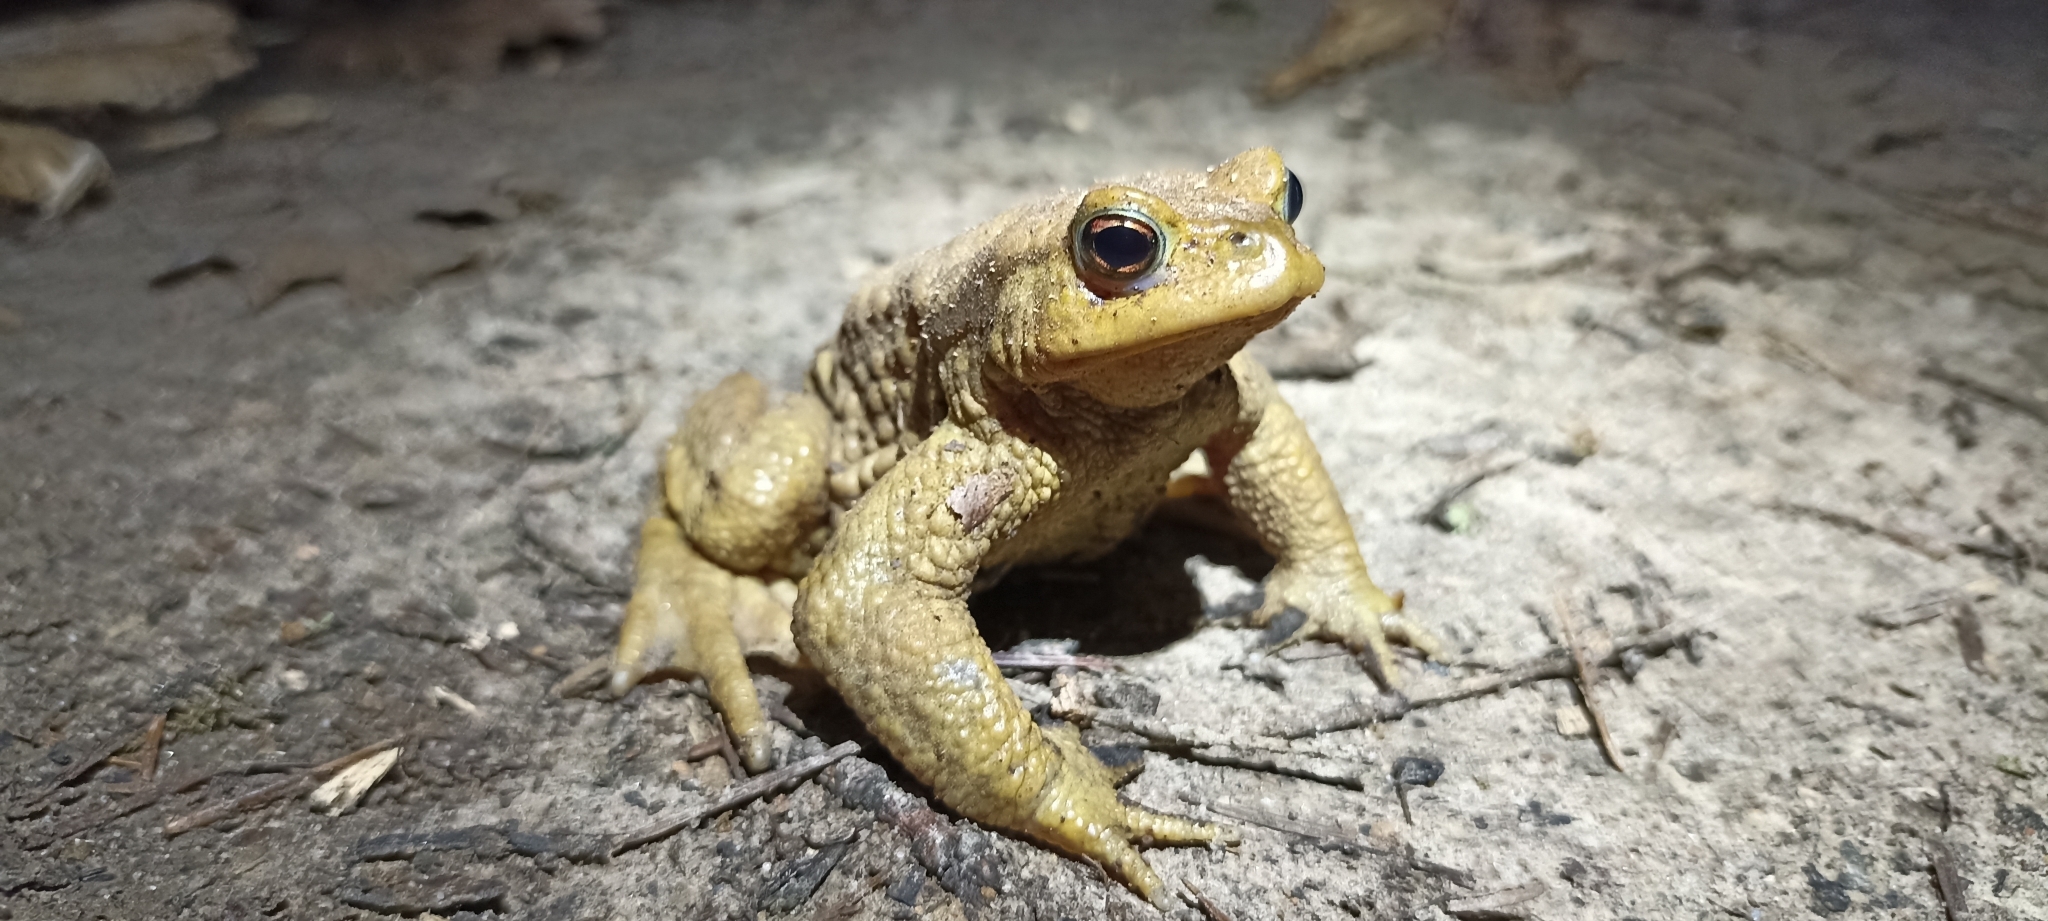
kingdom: Animalia
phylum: Chordata
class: Amphibia
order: Anura
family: Bufonidae
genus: Bufo
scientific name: Bufo spinosus
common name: Western common toad
